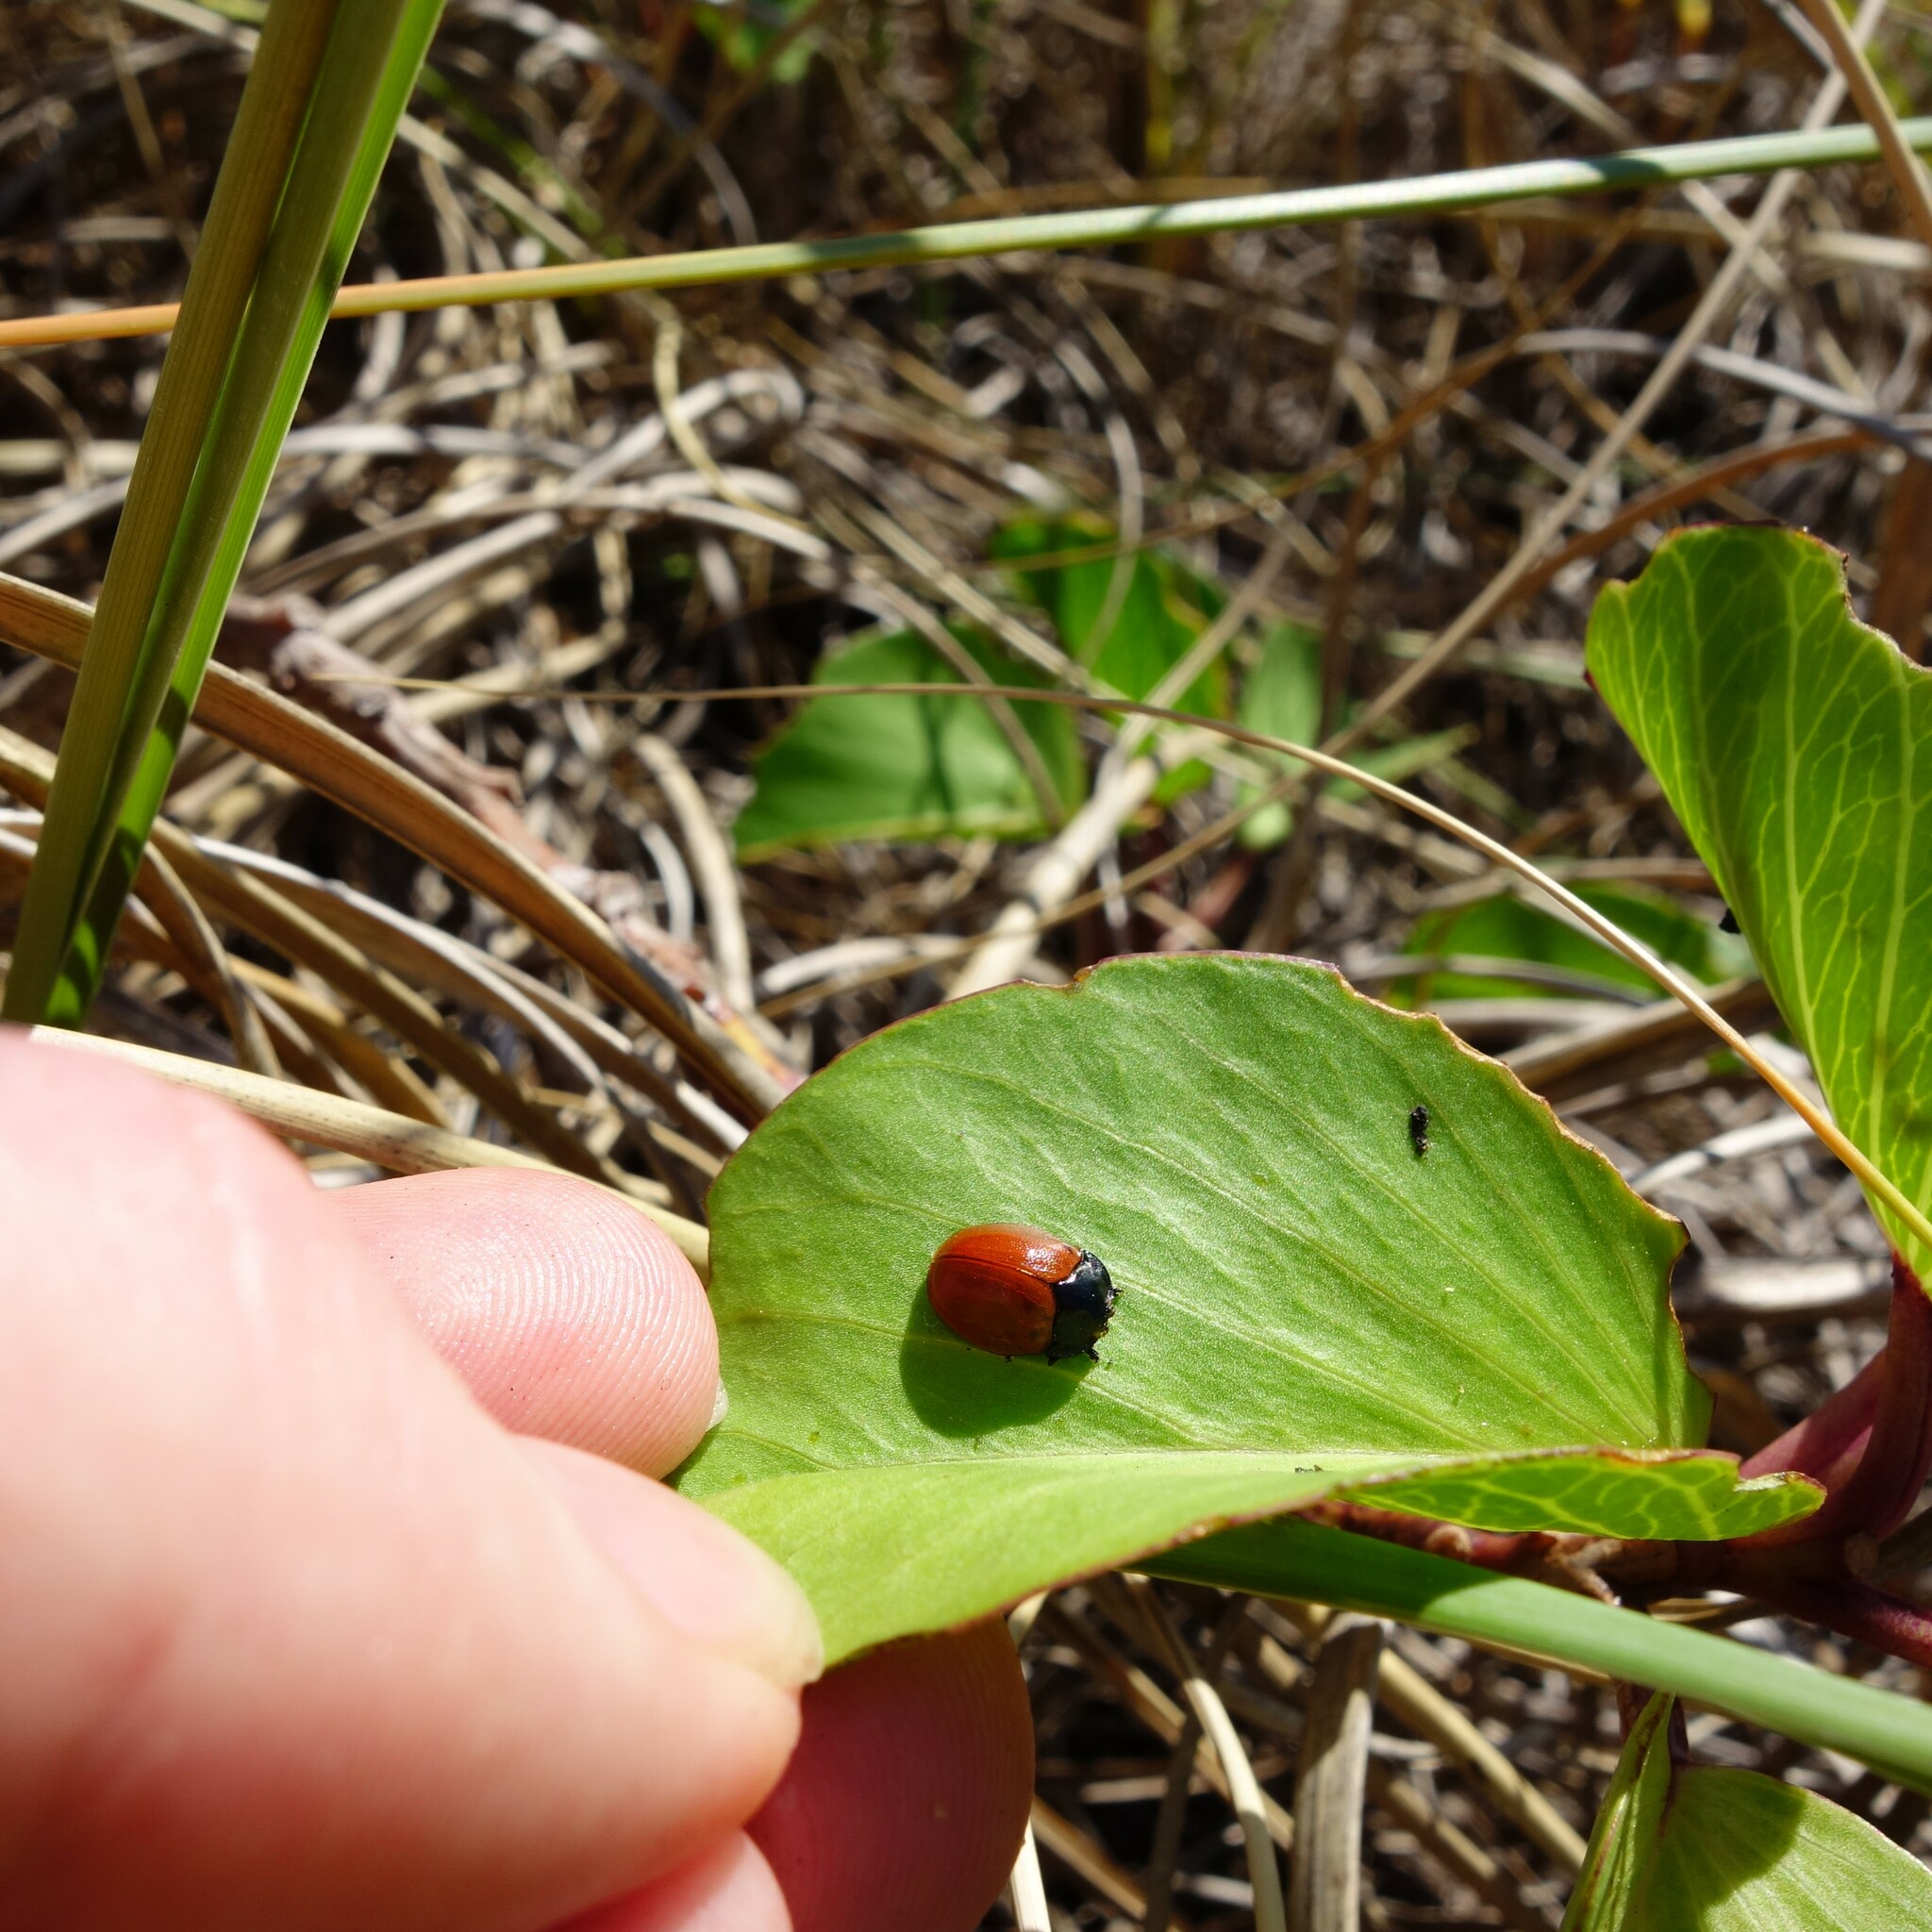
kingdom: Animalia
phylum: Arthropoda
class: Insecta
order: Coleoptera
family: Chrysomelidae
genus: Chelymorpha
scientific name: Chelymorpha cribraria
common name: Tortoise beetle
